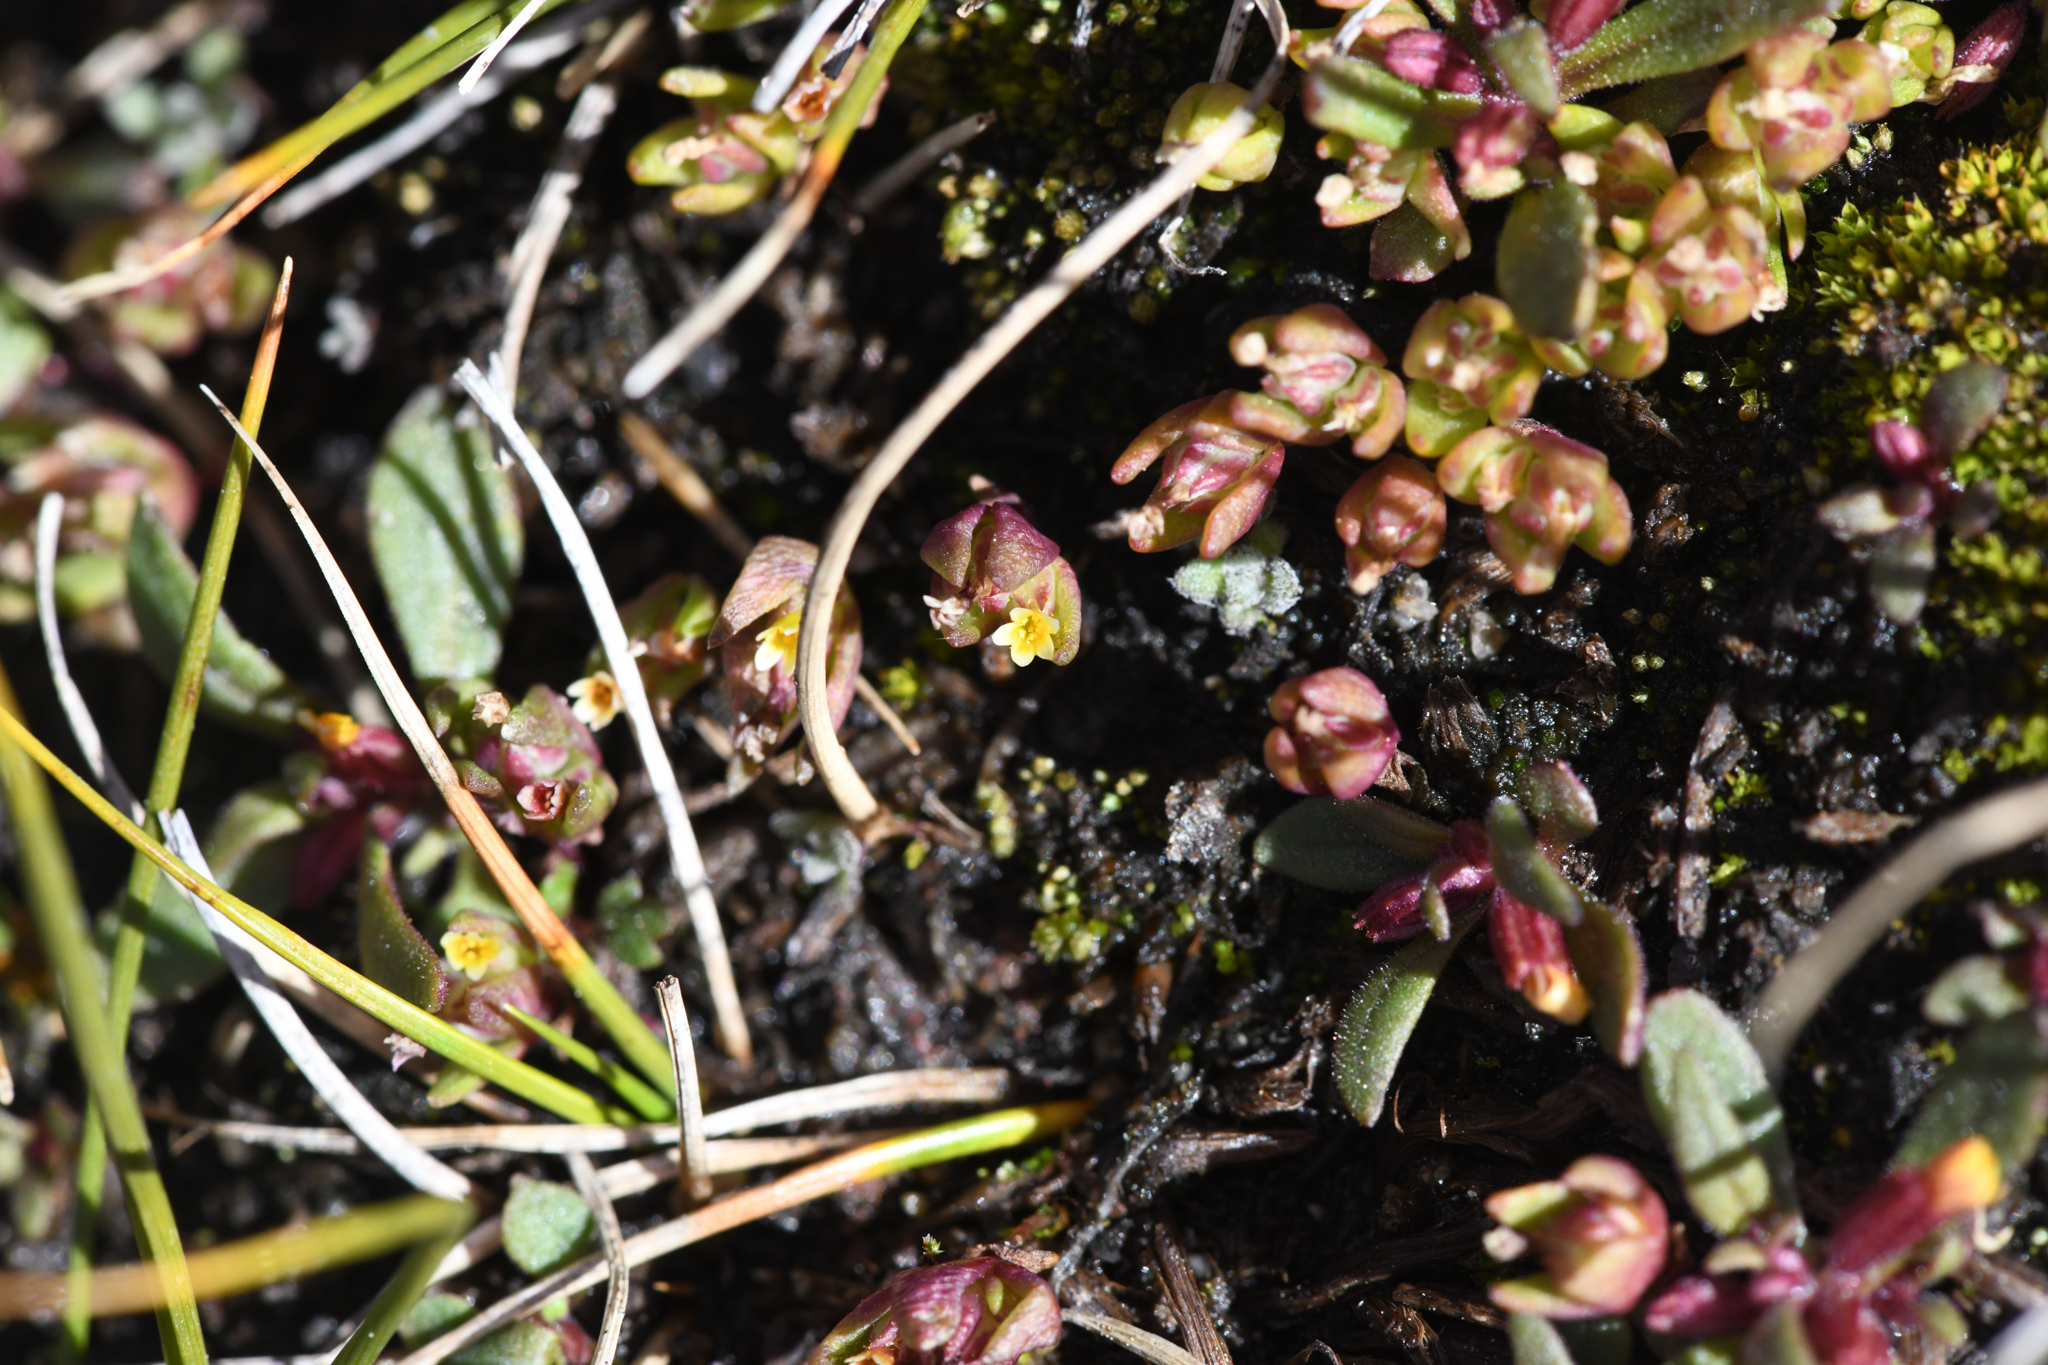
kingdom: Plantae
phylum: Tracheophyta
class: Magnoliopsida
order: Ericales
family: Polemoniaceae
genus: Gymnosteris
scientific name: Gymnosteris parvula
